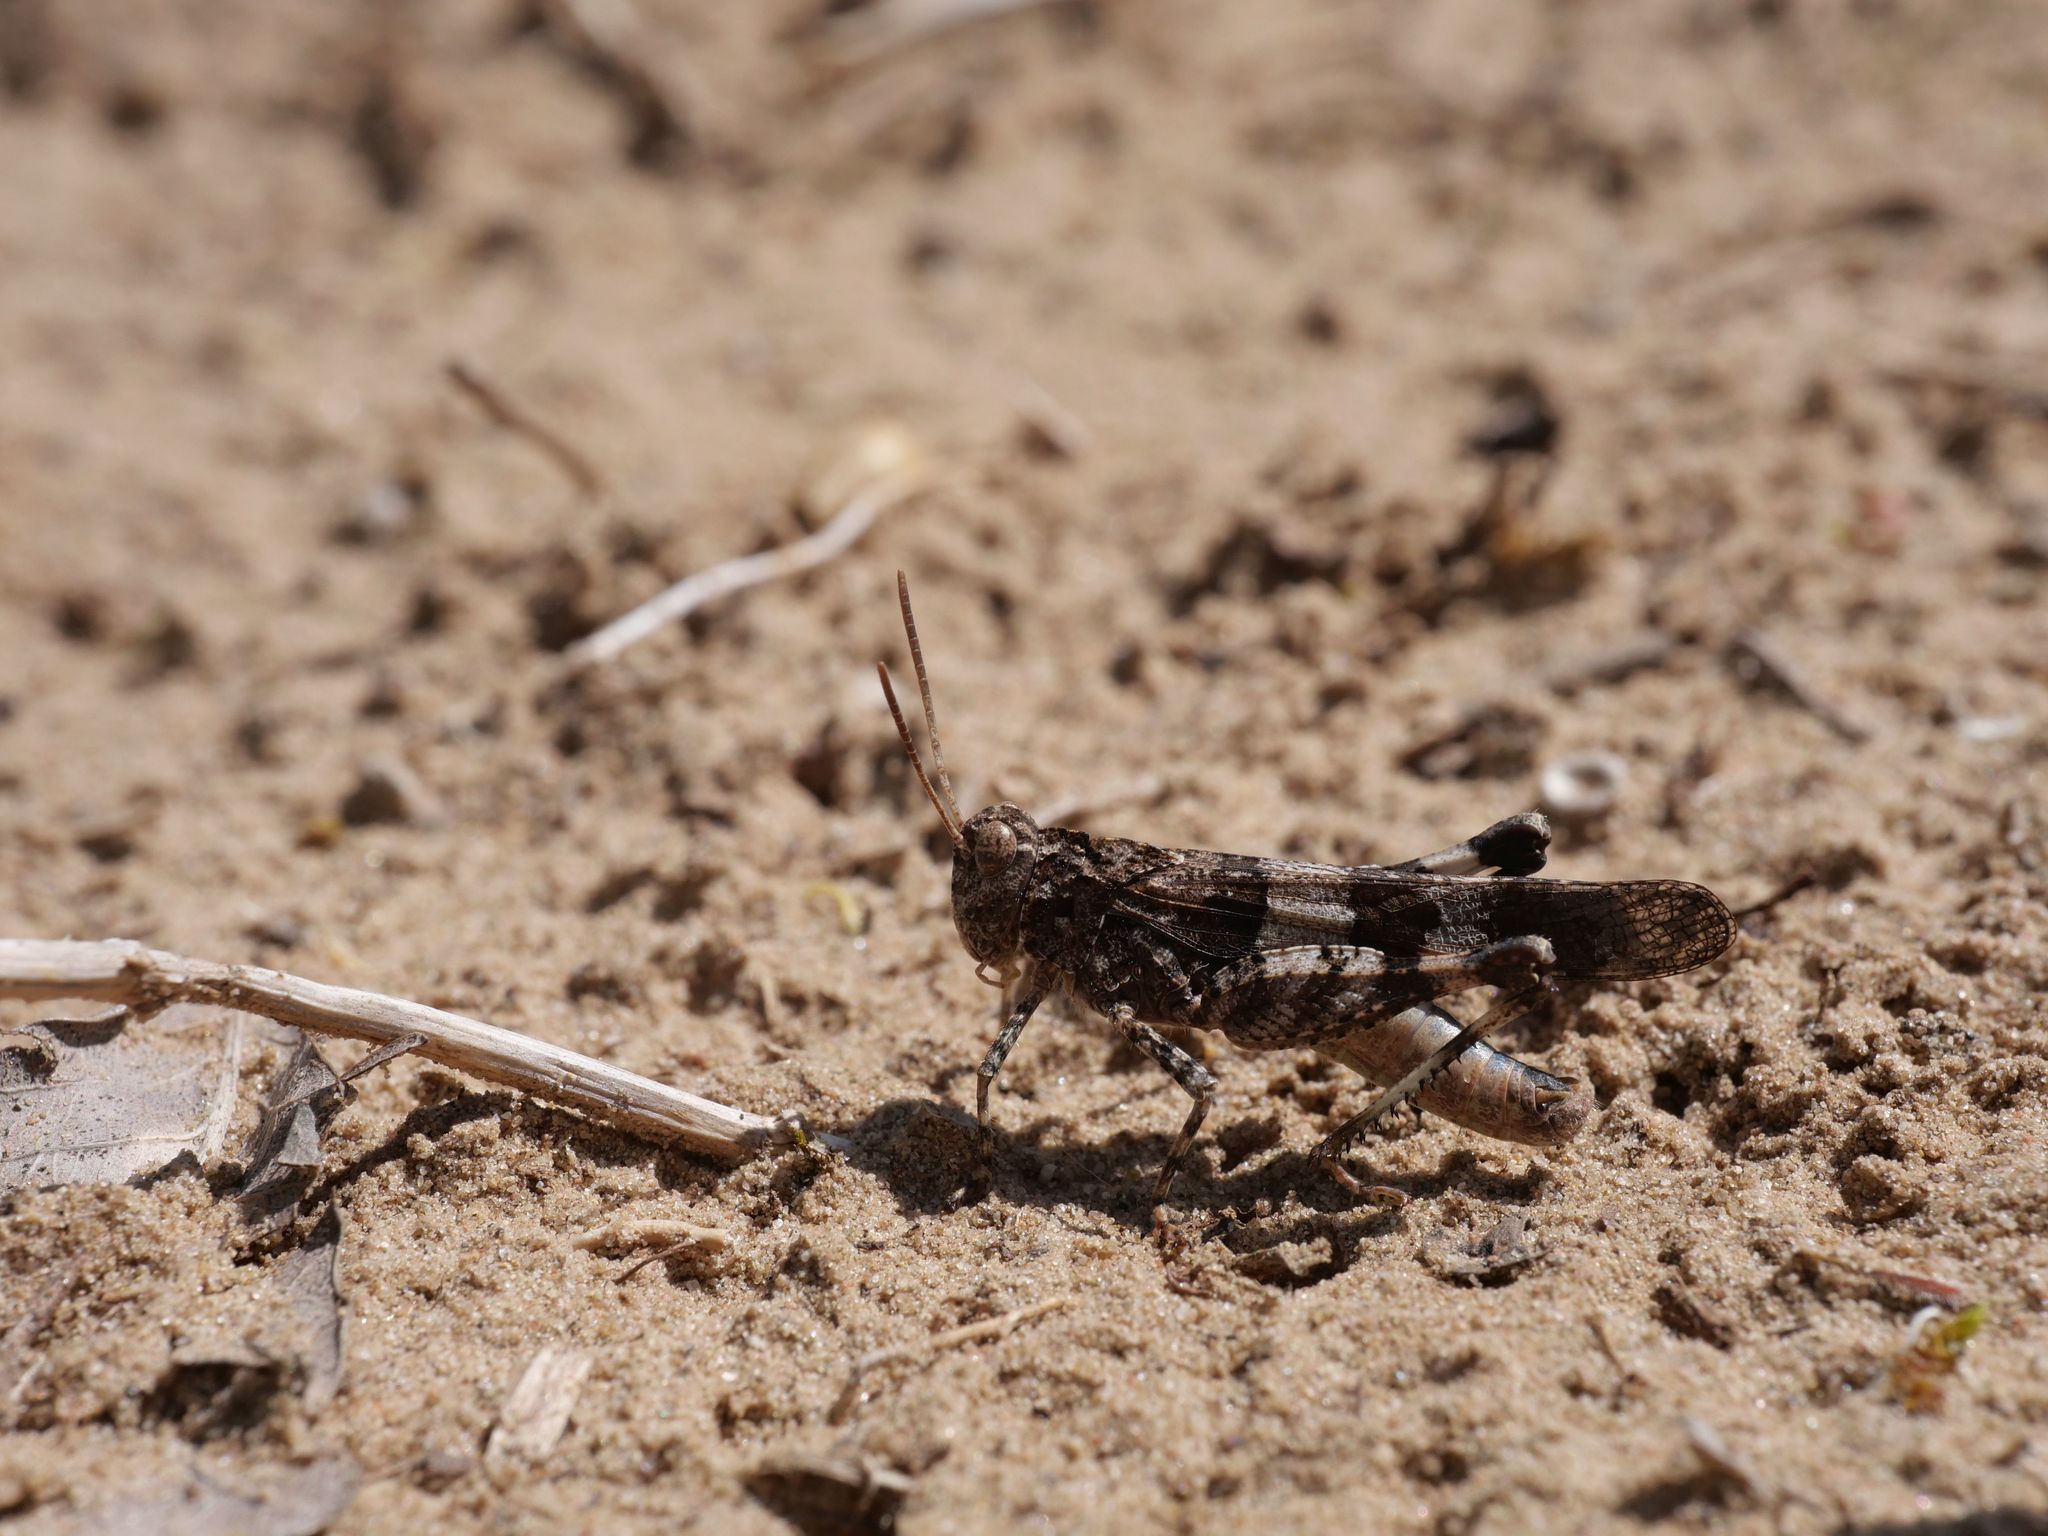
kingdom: Animalia
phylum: Arthropoda
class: Insecta
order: Orthoptera
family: Acrididae
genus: Oedipoda
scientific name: Oedipoda caerulescens
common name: Blue-winged grasshopper
